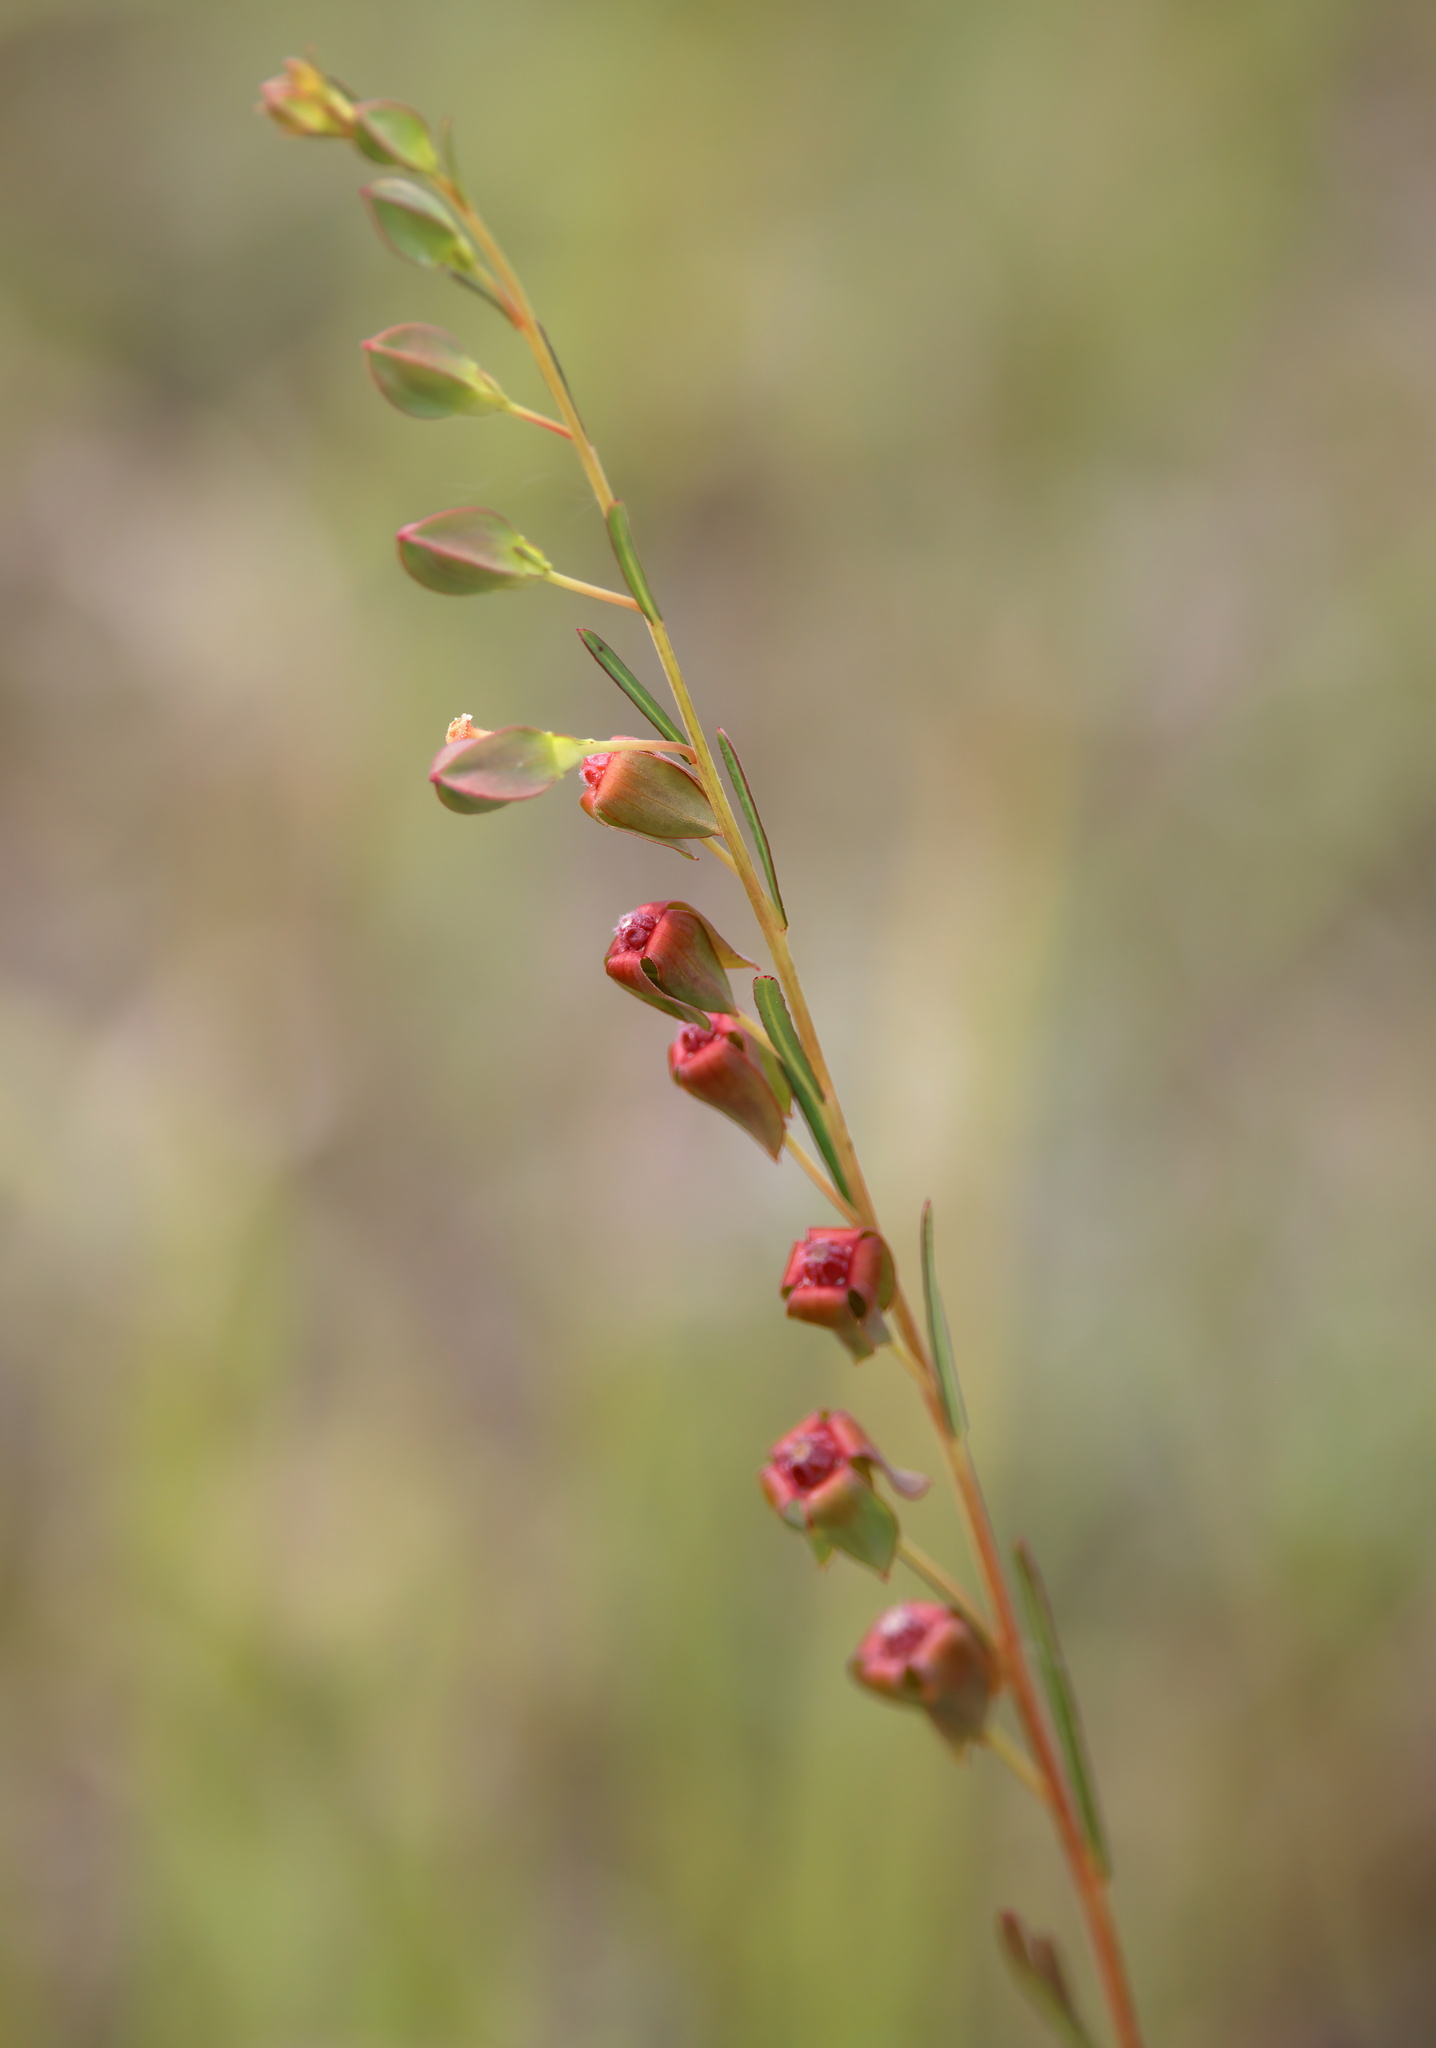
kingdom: Plantae
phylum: Tracheophyta
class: Magnoliopsida
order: Myrtales
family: Onagraceae
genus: Ludwigia
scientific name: Ludwigia virgata
